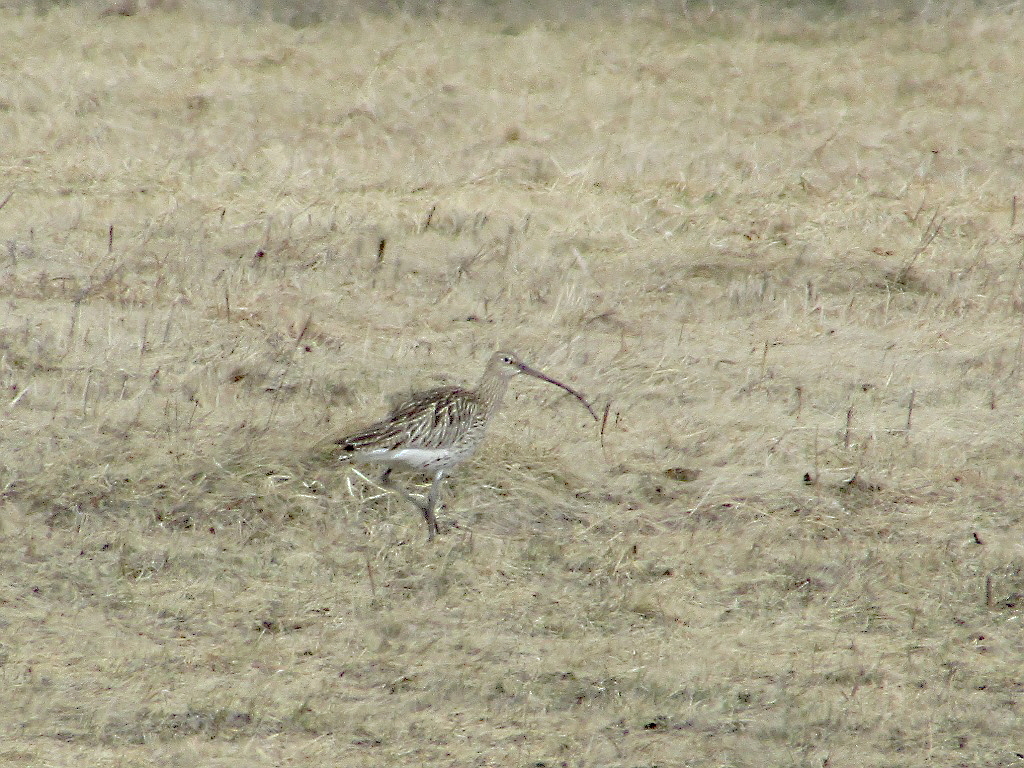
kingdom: Animalia
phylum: Chordata
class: Aves
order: Charadriiformes
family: Scolopacidae
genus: Numenius
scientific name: Numenius arquata
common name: Eurasian curlew
